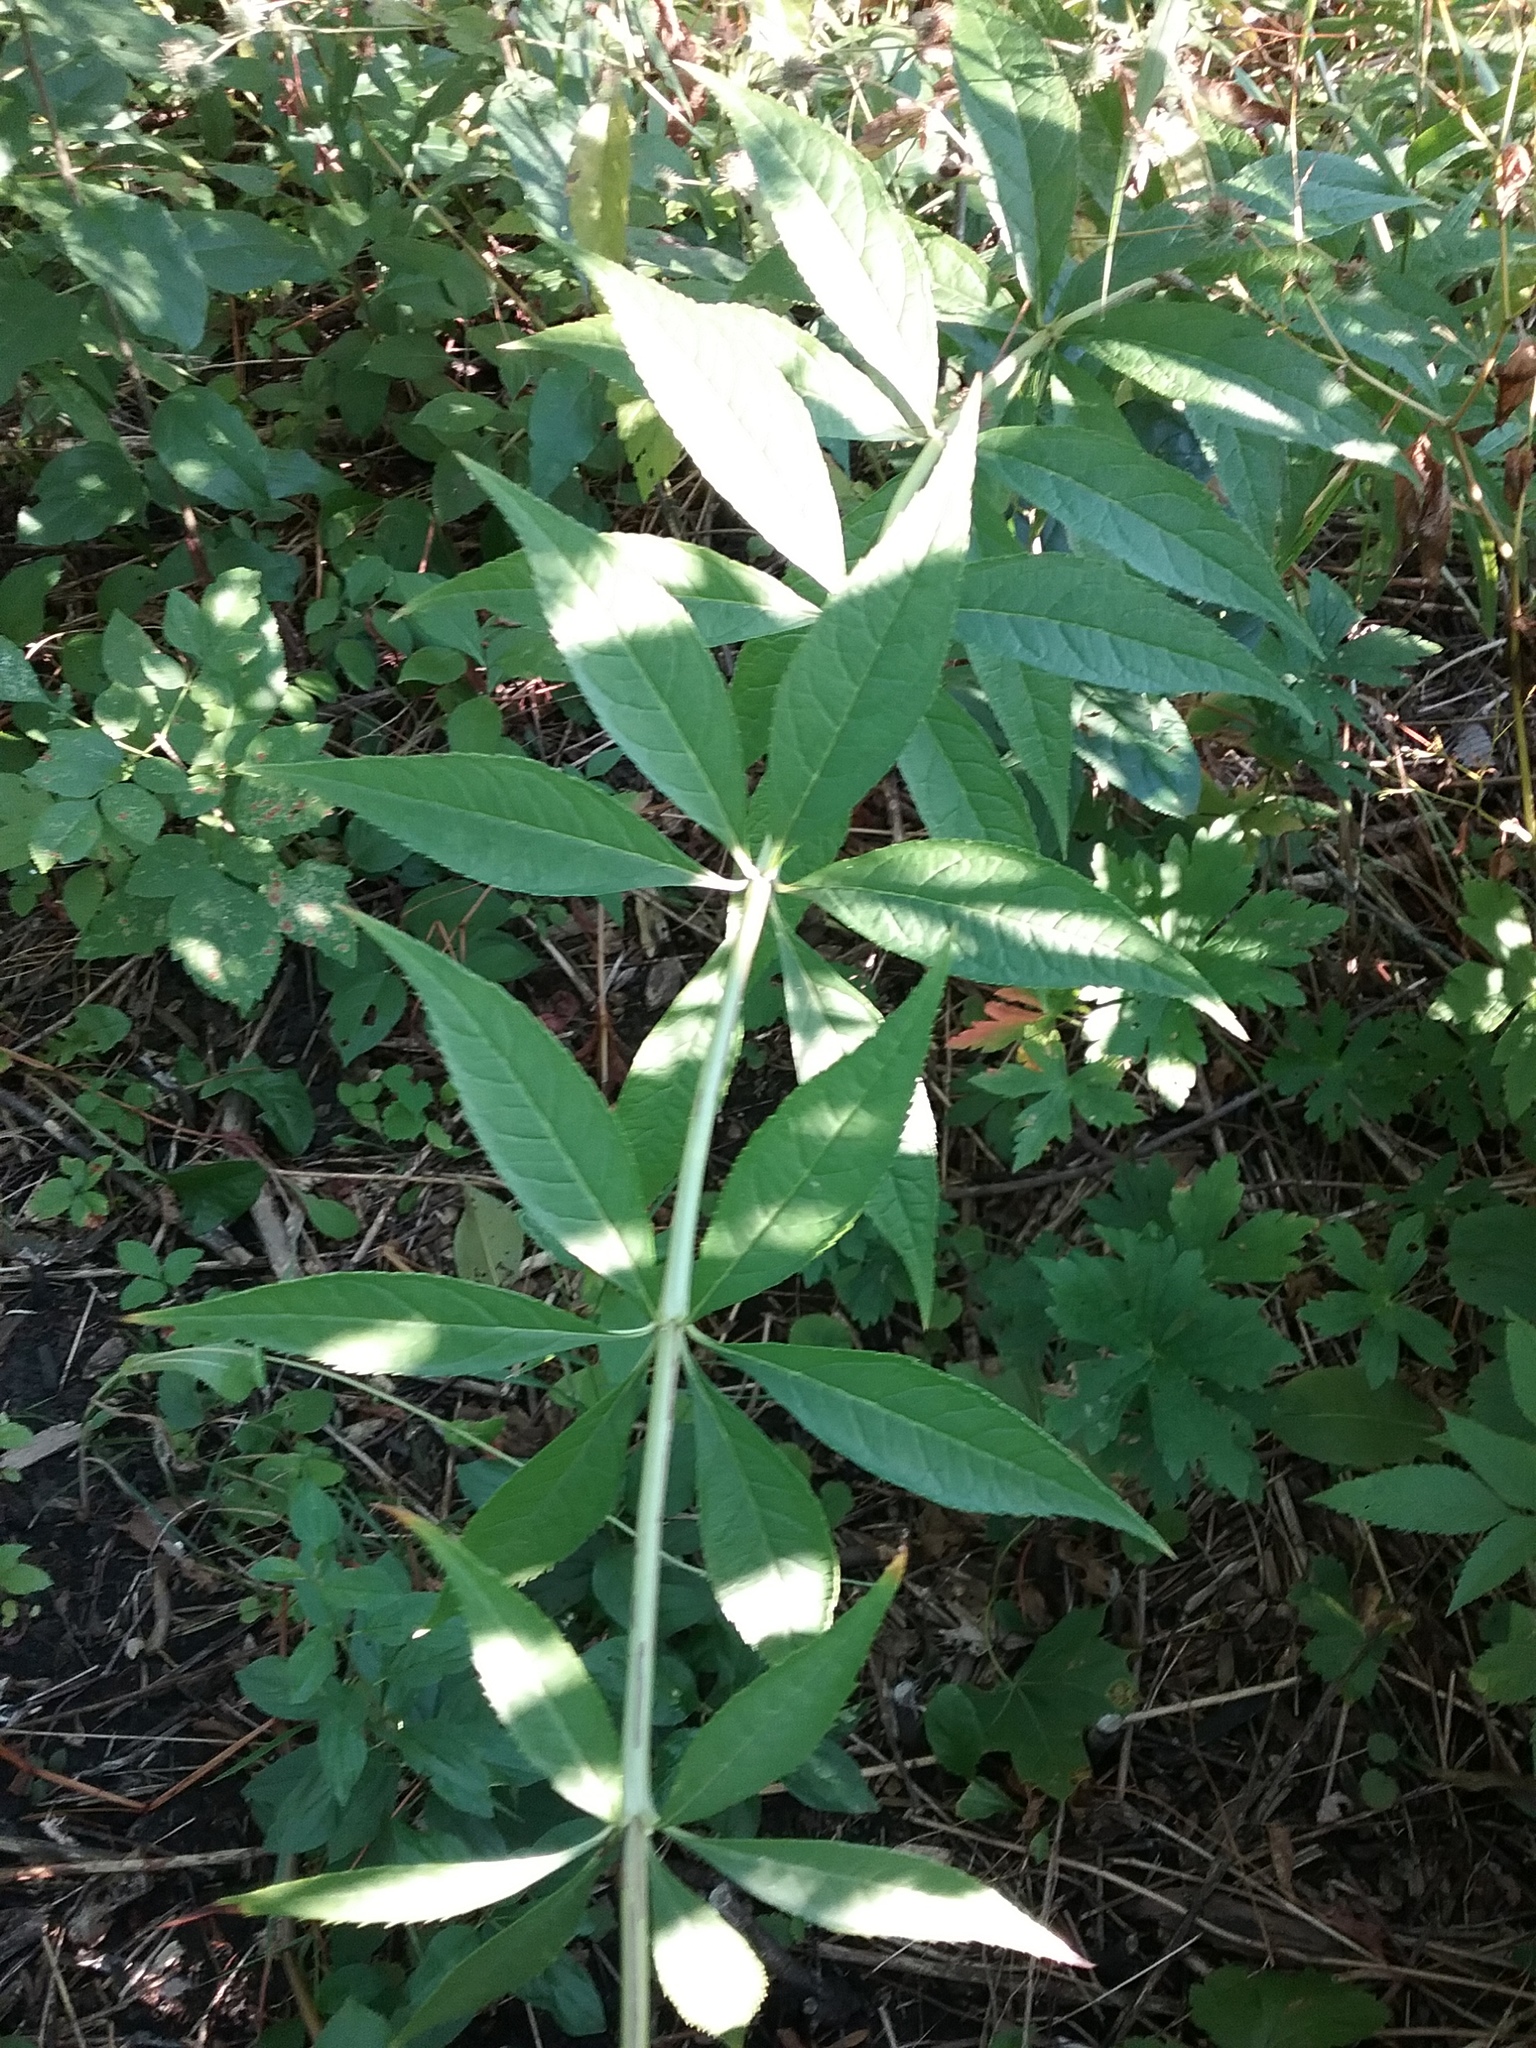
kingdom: Plantae
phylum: Tracheophyta
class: Magnoliopsida
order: Lamiales
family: Plantaginaceae
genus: Veronicastrum
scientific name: Veronicastrum virginicum
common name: Blackroot
